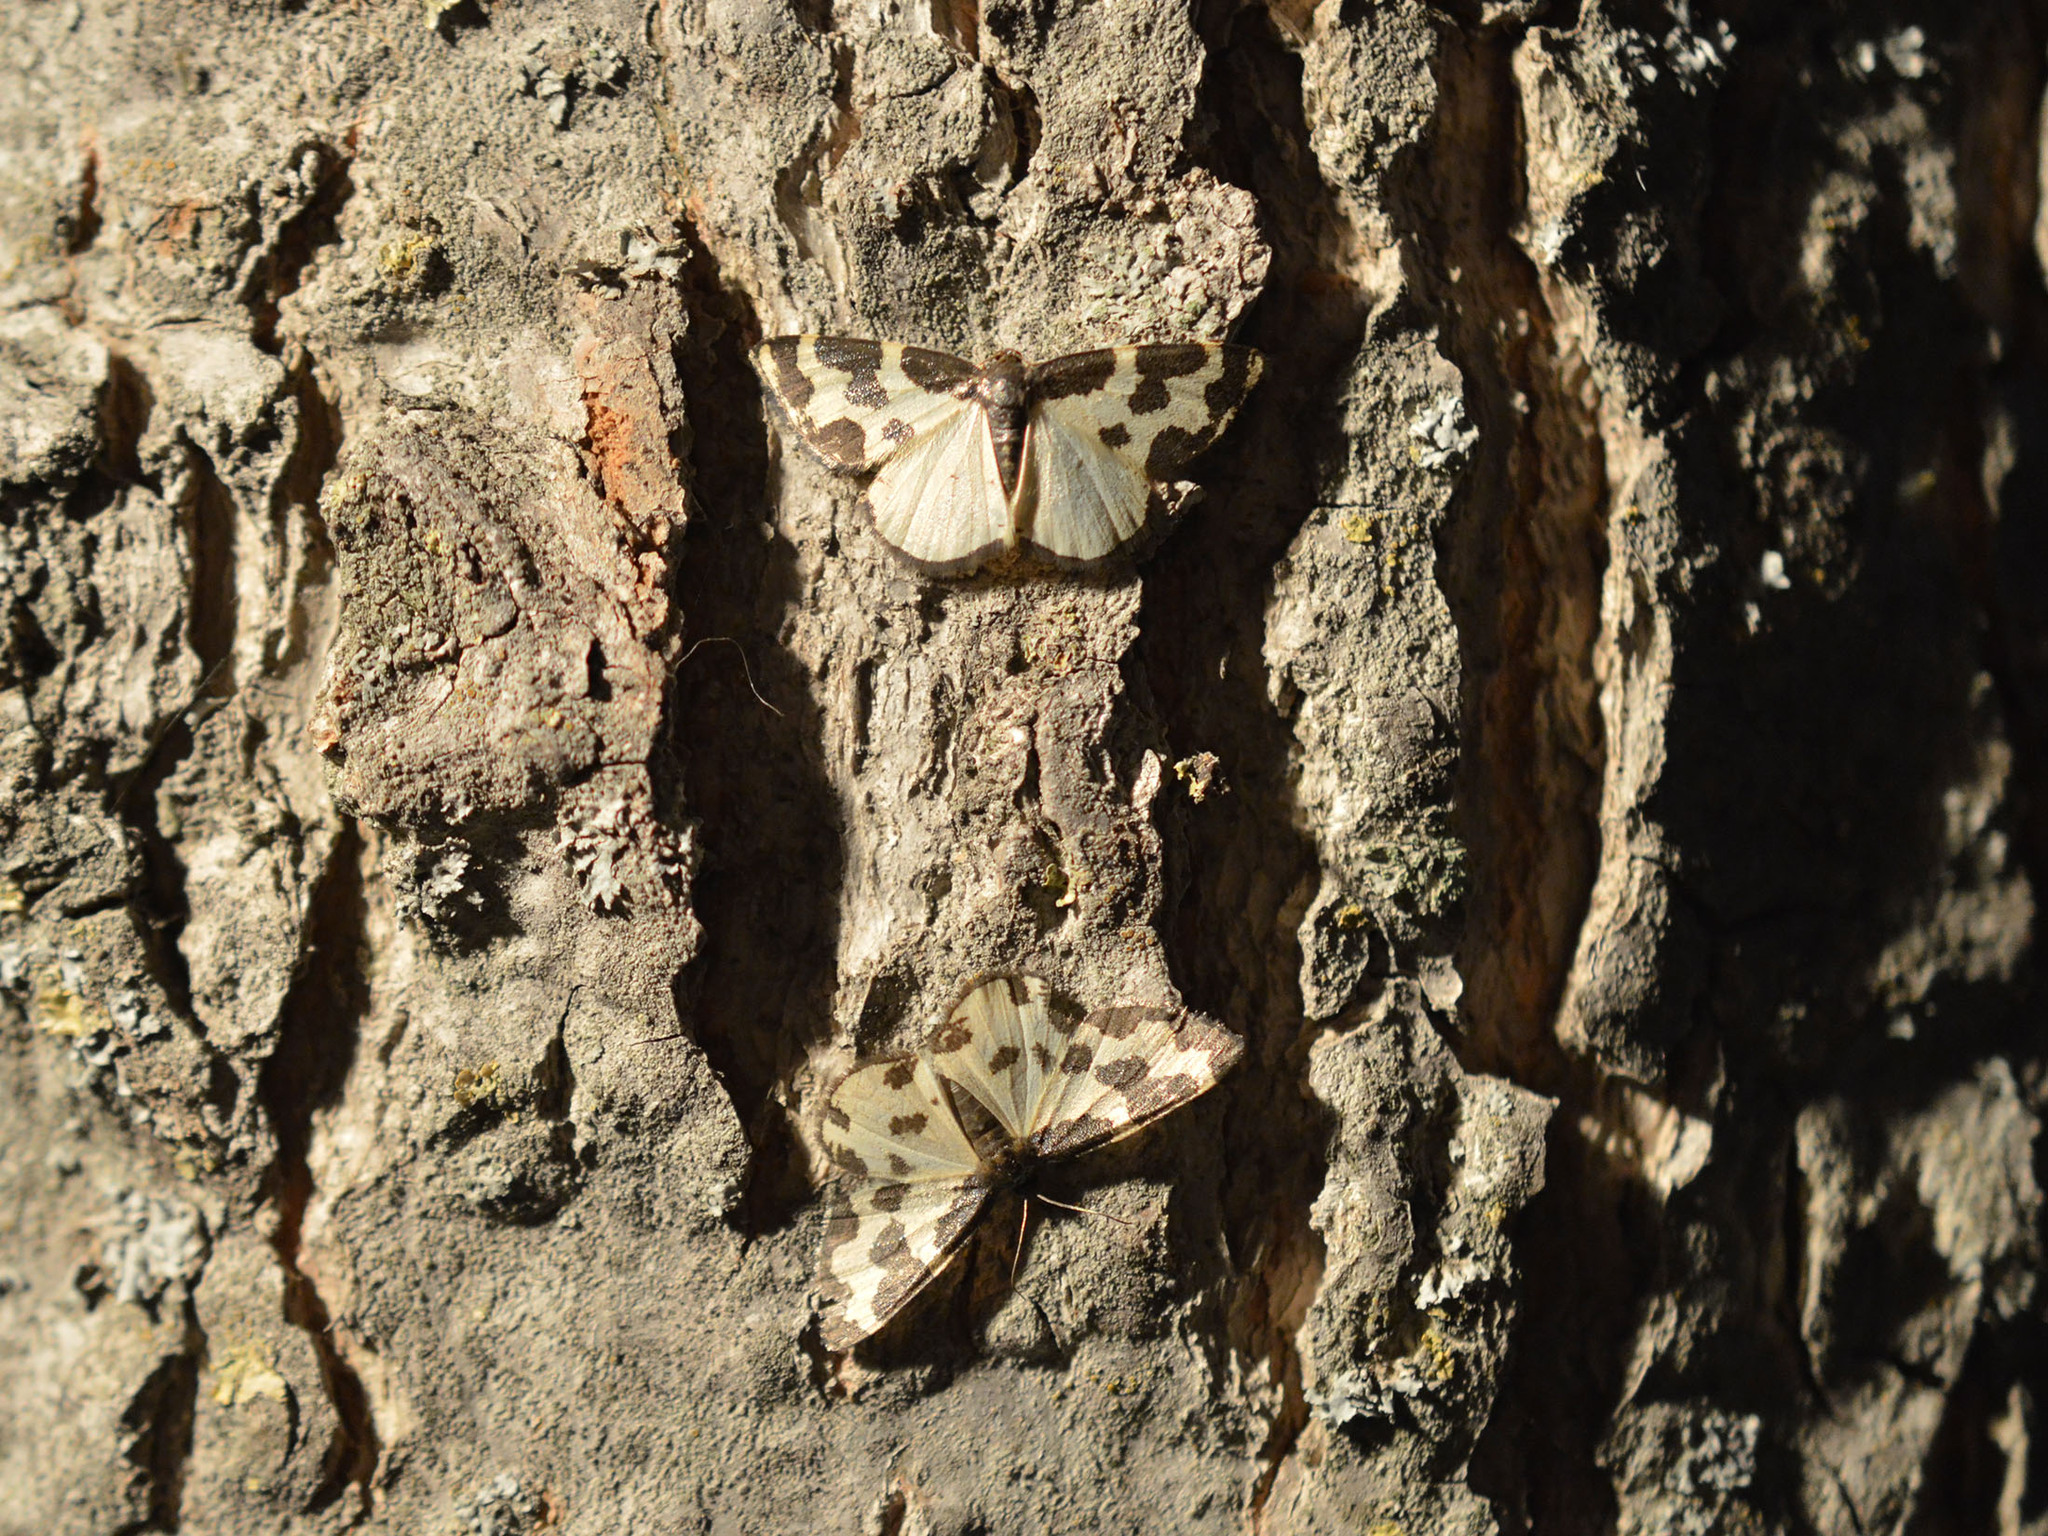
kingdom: Animalia
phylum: Arthropoda
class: Insecta
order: Lepidoptera
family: Geometridae
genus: Lomaspilis
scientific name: Lomaspilis marginata
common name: Clouded border
